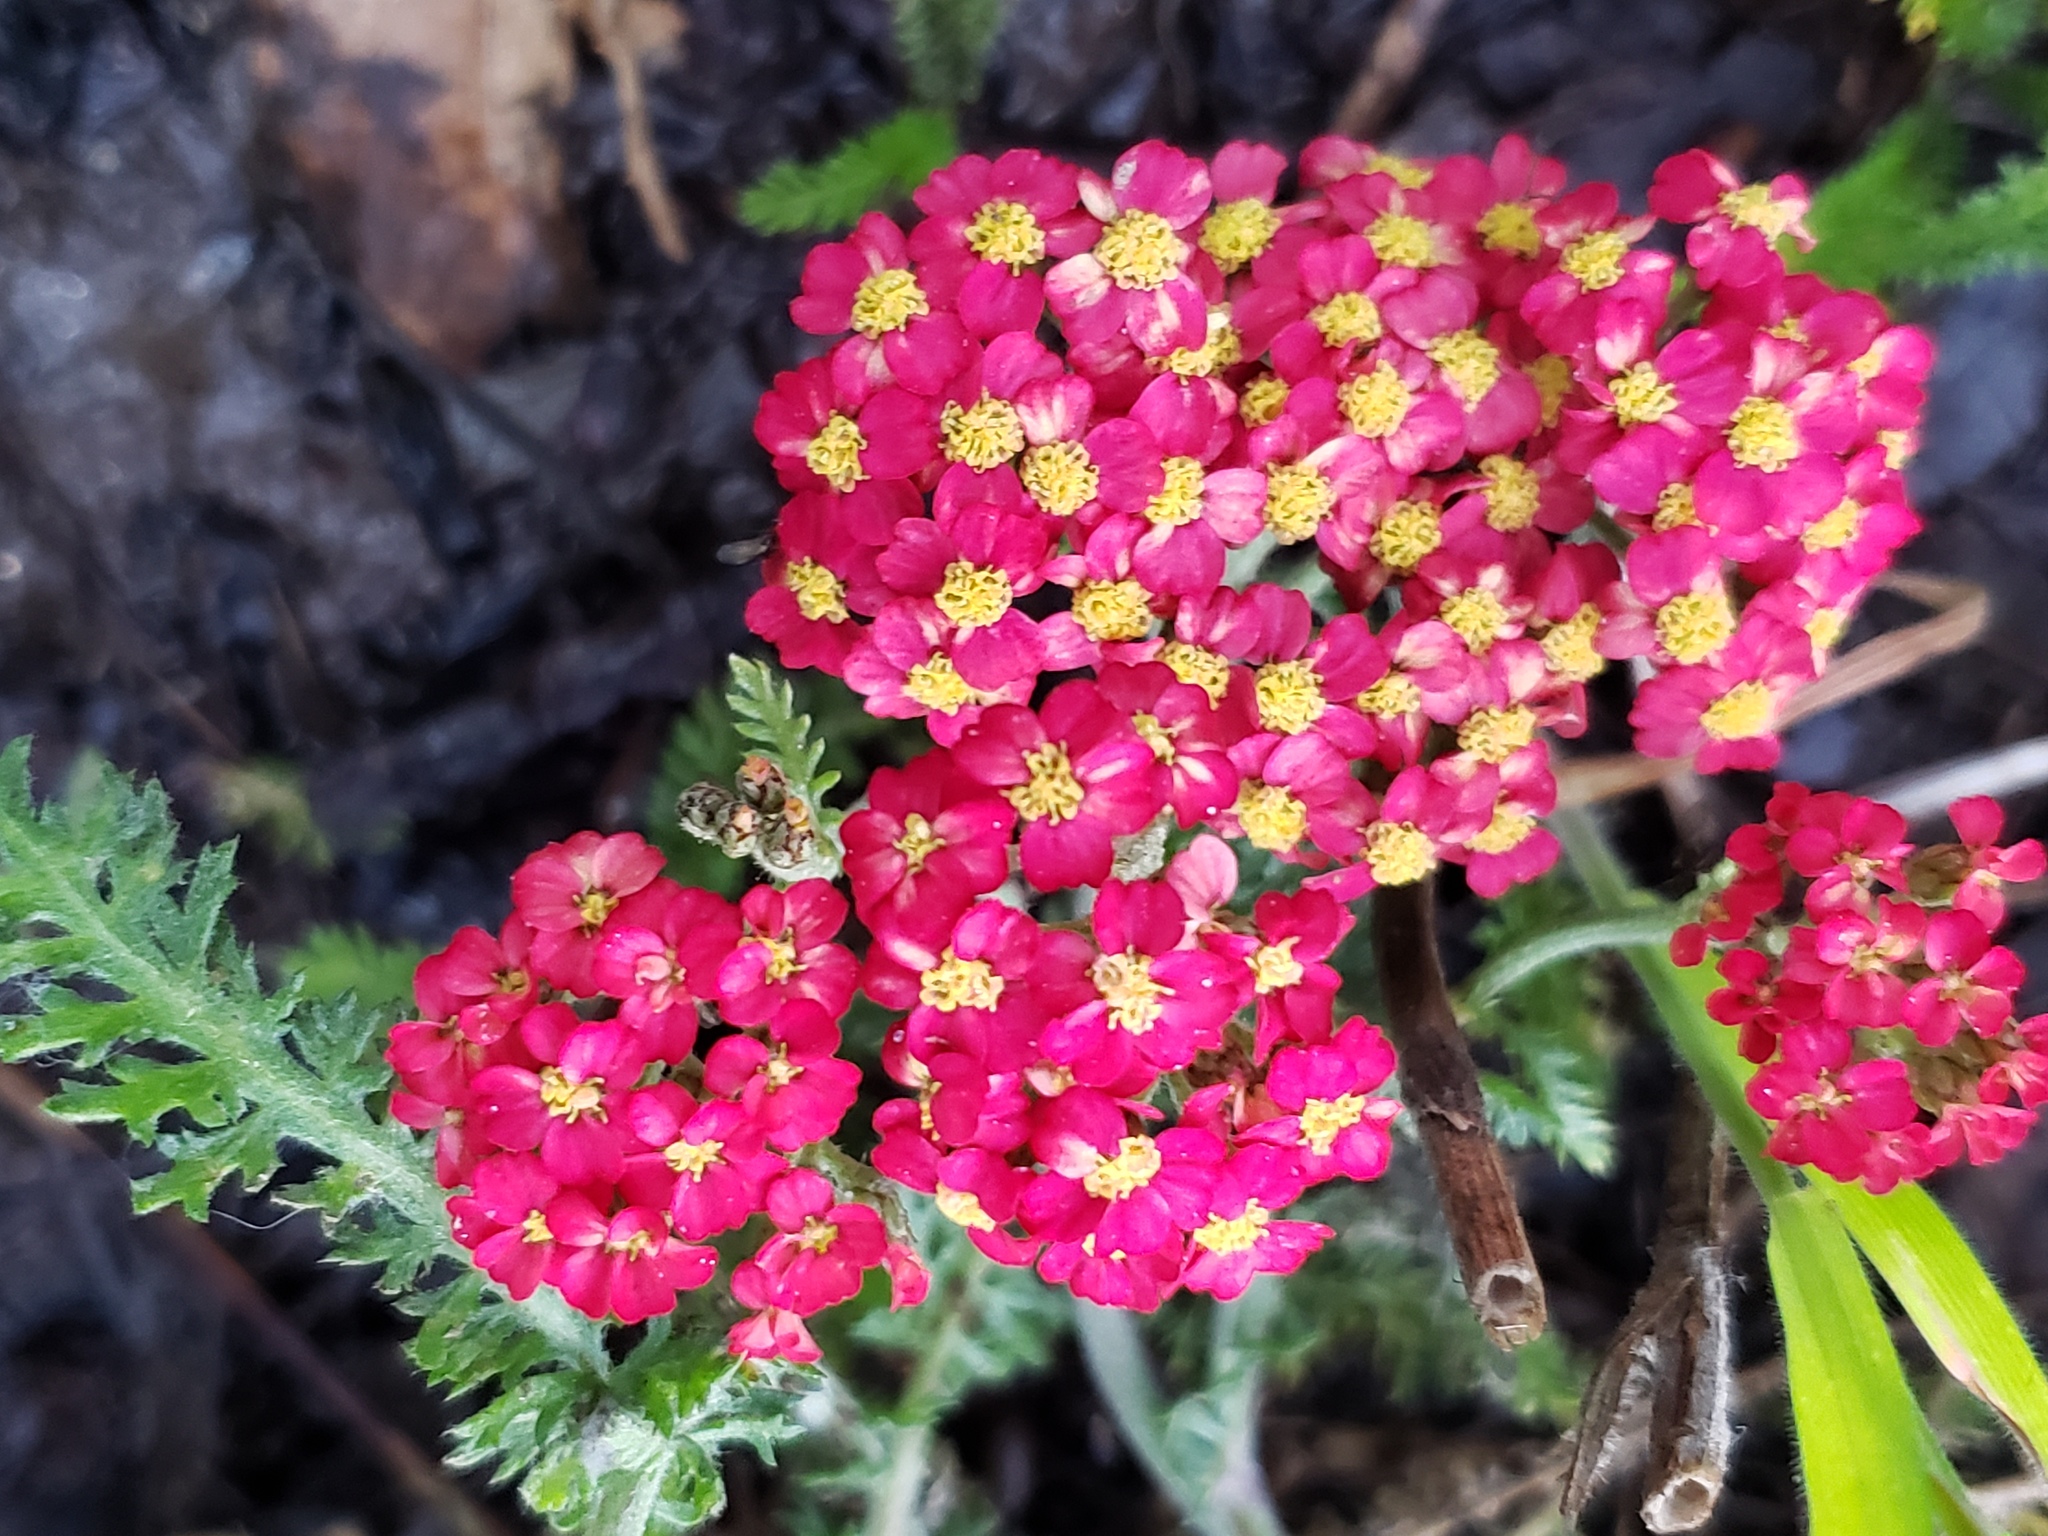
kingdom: Plantae
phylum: Tracheophyta
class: Magnoliopsida
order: Asterales
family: Asteraceae
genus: Achillea
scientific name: Achillea millefolium
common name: Yarrow
